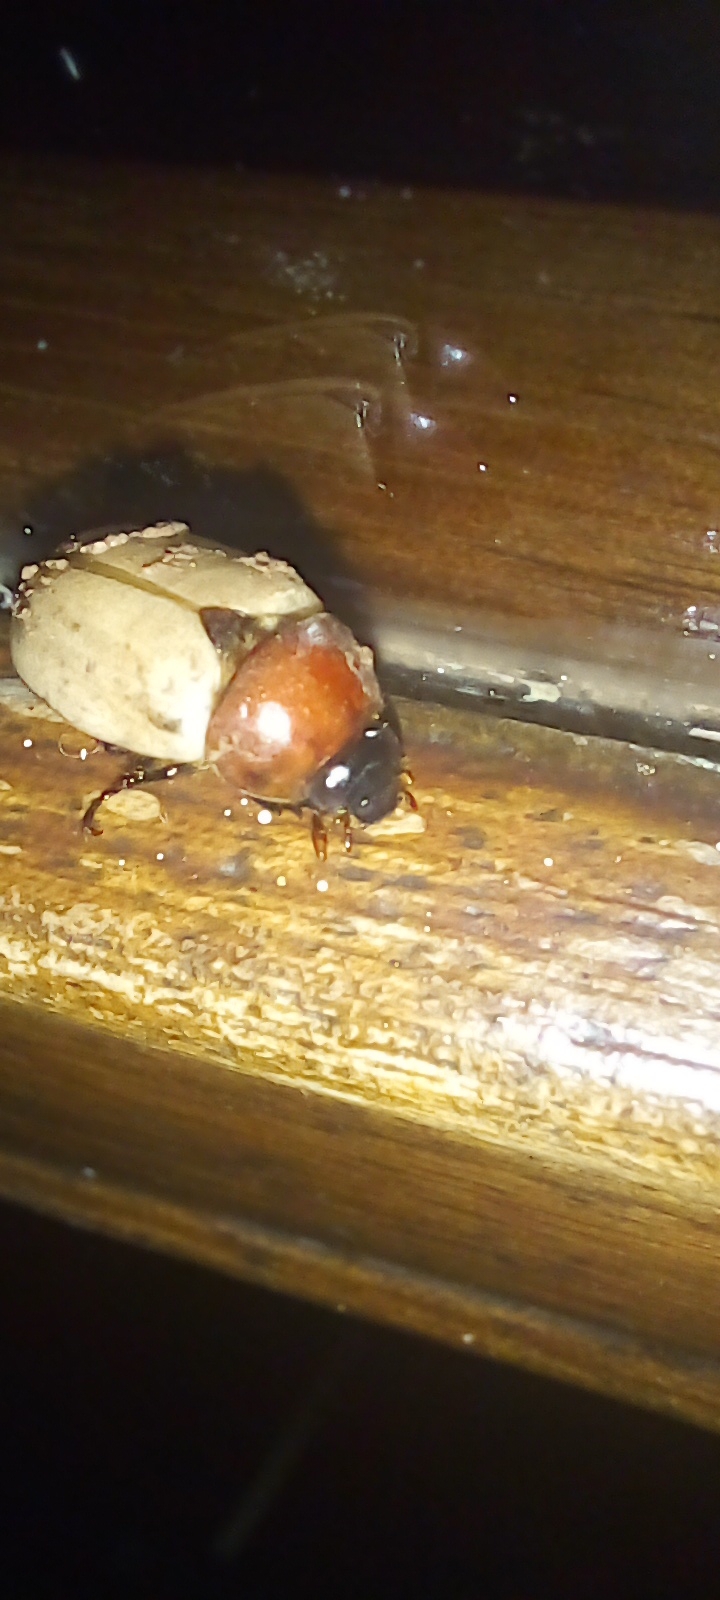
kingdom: Animalia
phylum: Arthropoda
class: Insecta
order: Coleoptera
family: Scarabaeidae
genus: Cyclocephala
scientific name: Cyclocephala melanocephala
